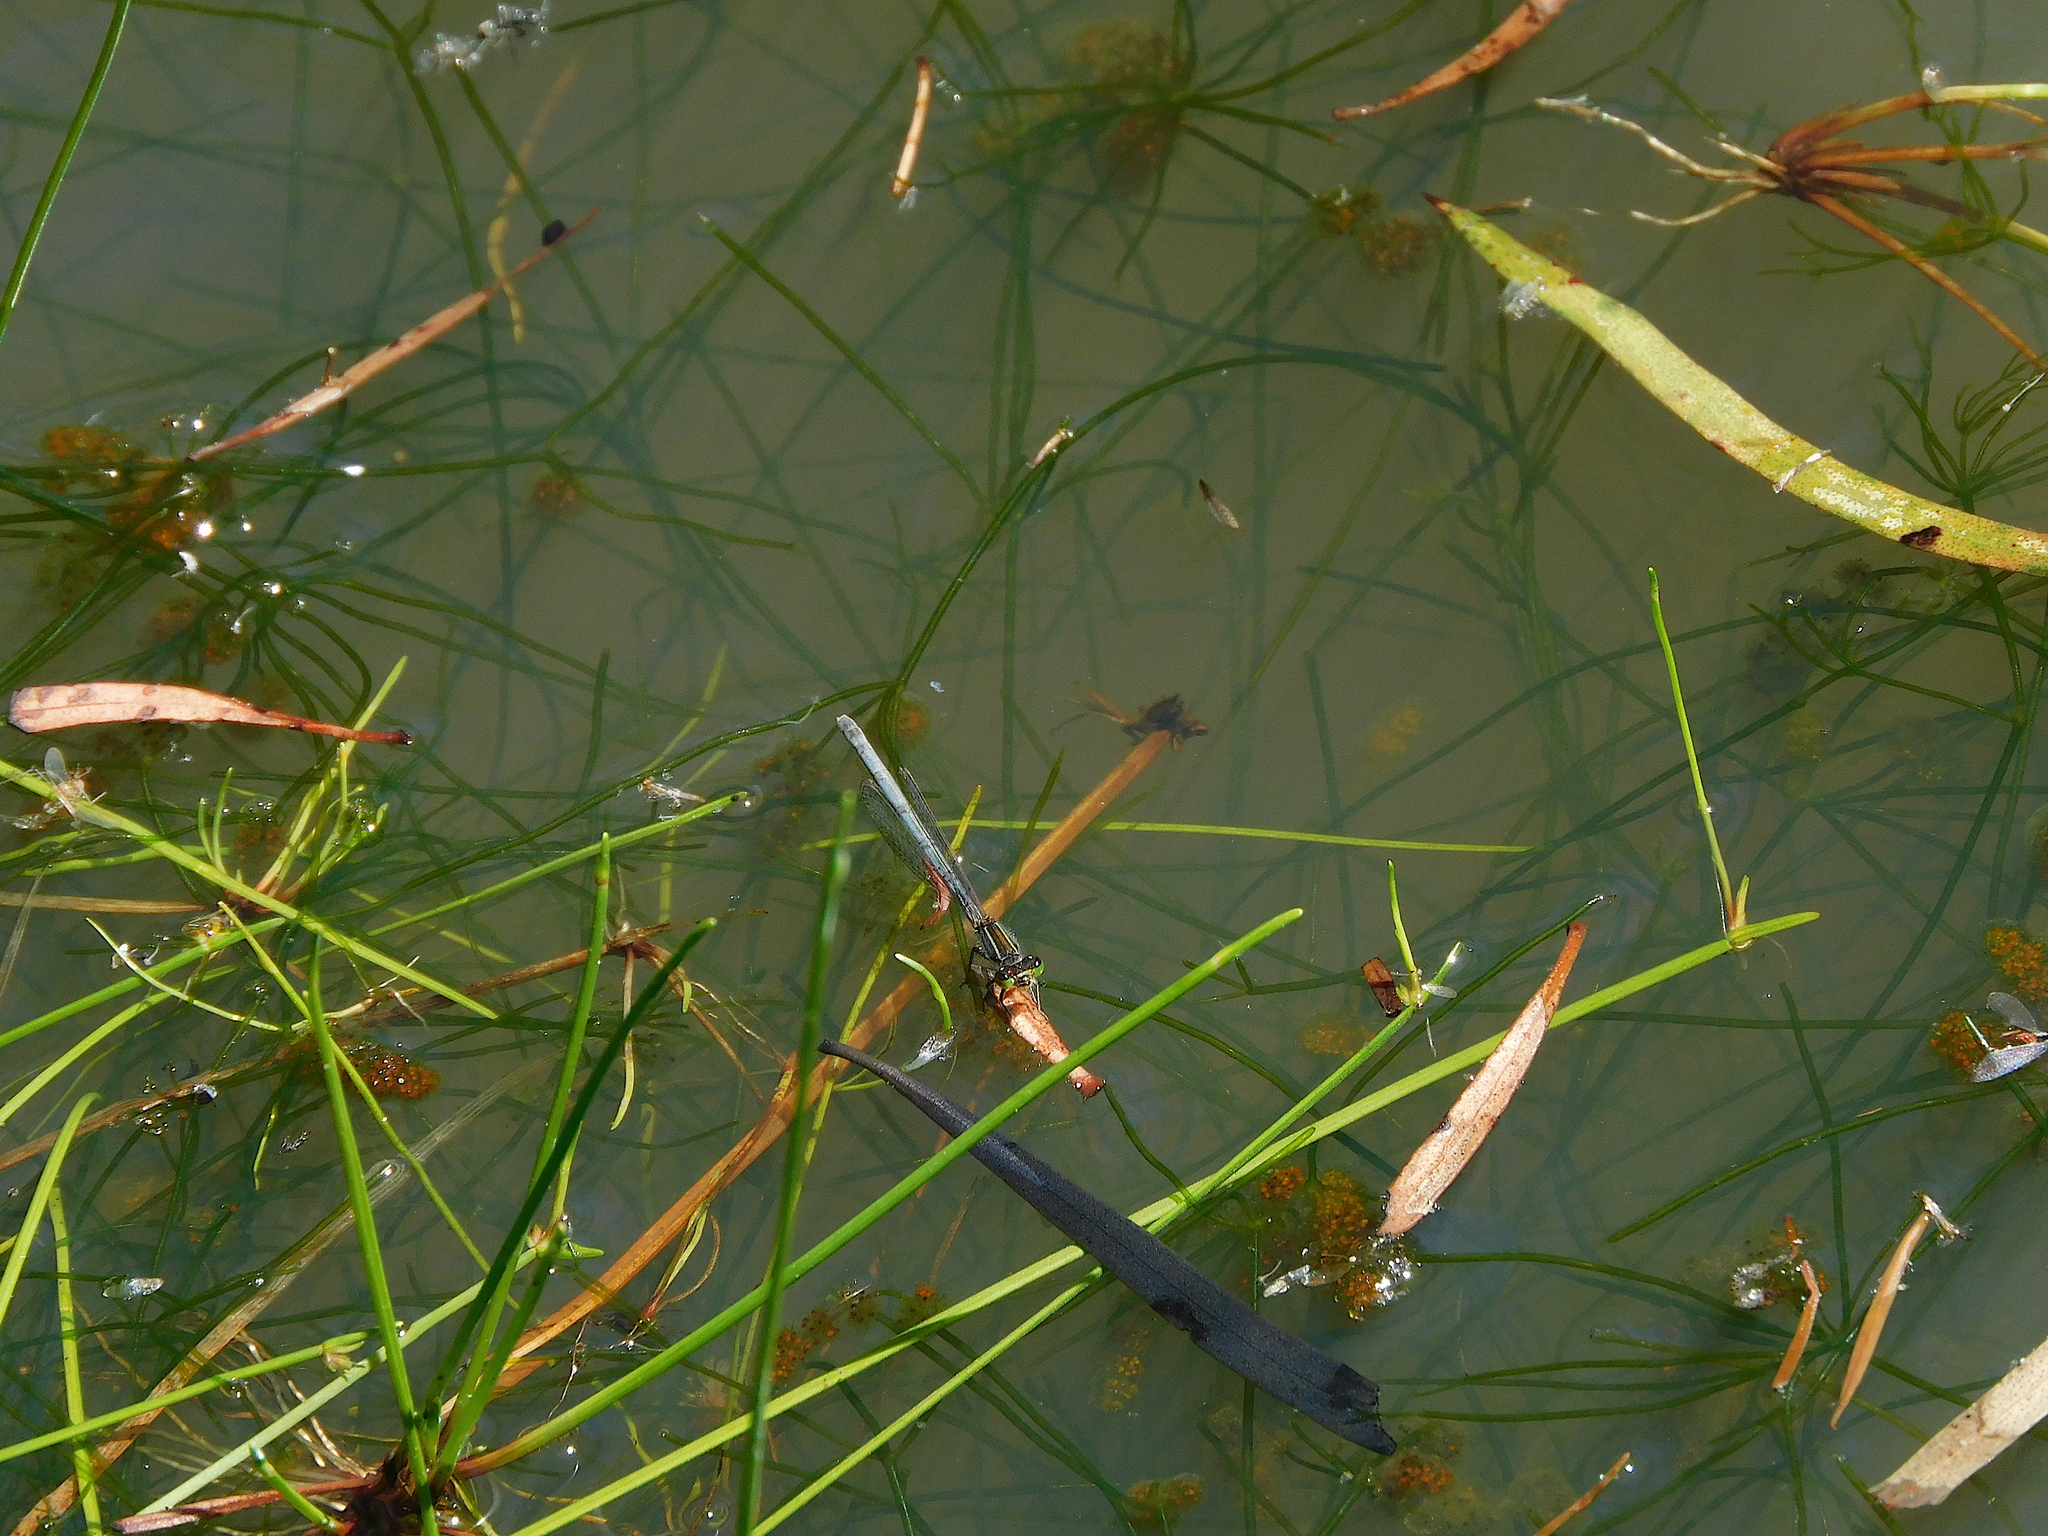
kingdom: Animalia
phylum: Arthropoda
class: Insecta
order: Odonata
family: Coenagrionidae
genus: Ischnura
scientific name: Ischnura aurora
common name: Gossamer damselfly
